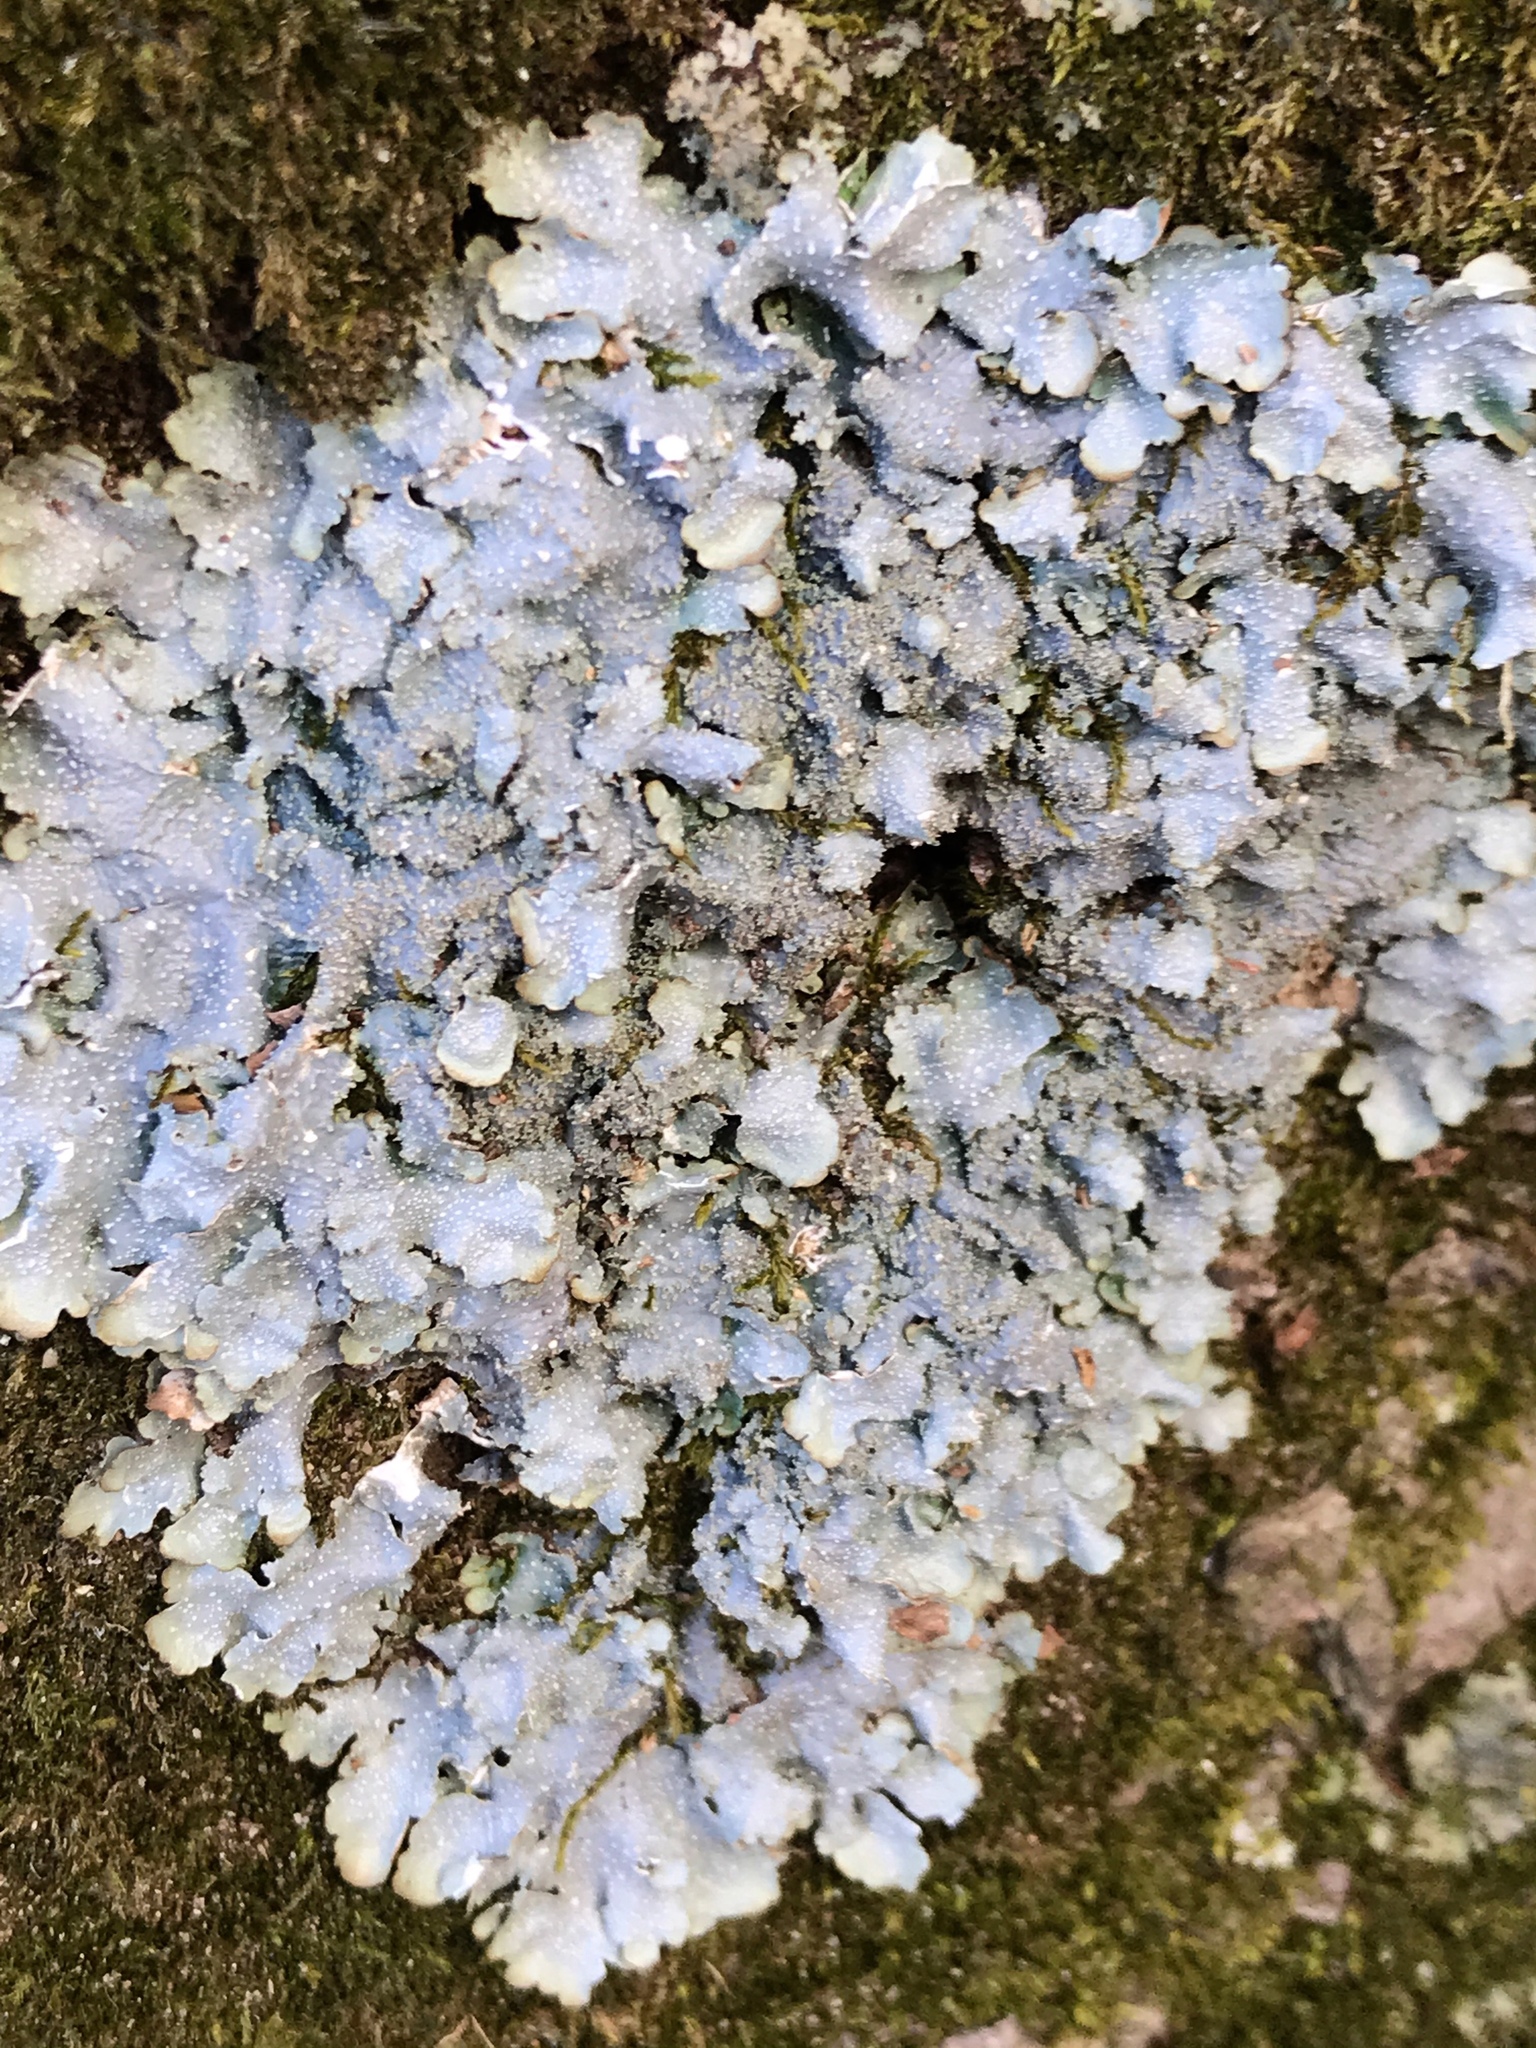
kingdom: Fungi
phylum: Ascomycota
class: Lecanoromycetes
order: Lecanorales
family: Parmeliaceae
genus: Punctelia
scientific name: Punctelia rudecta
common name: Rough speckled shield lichen
